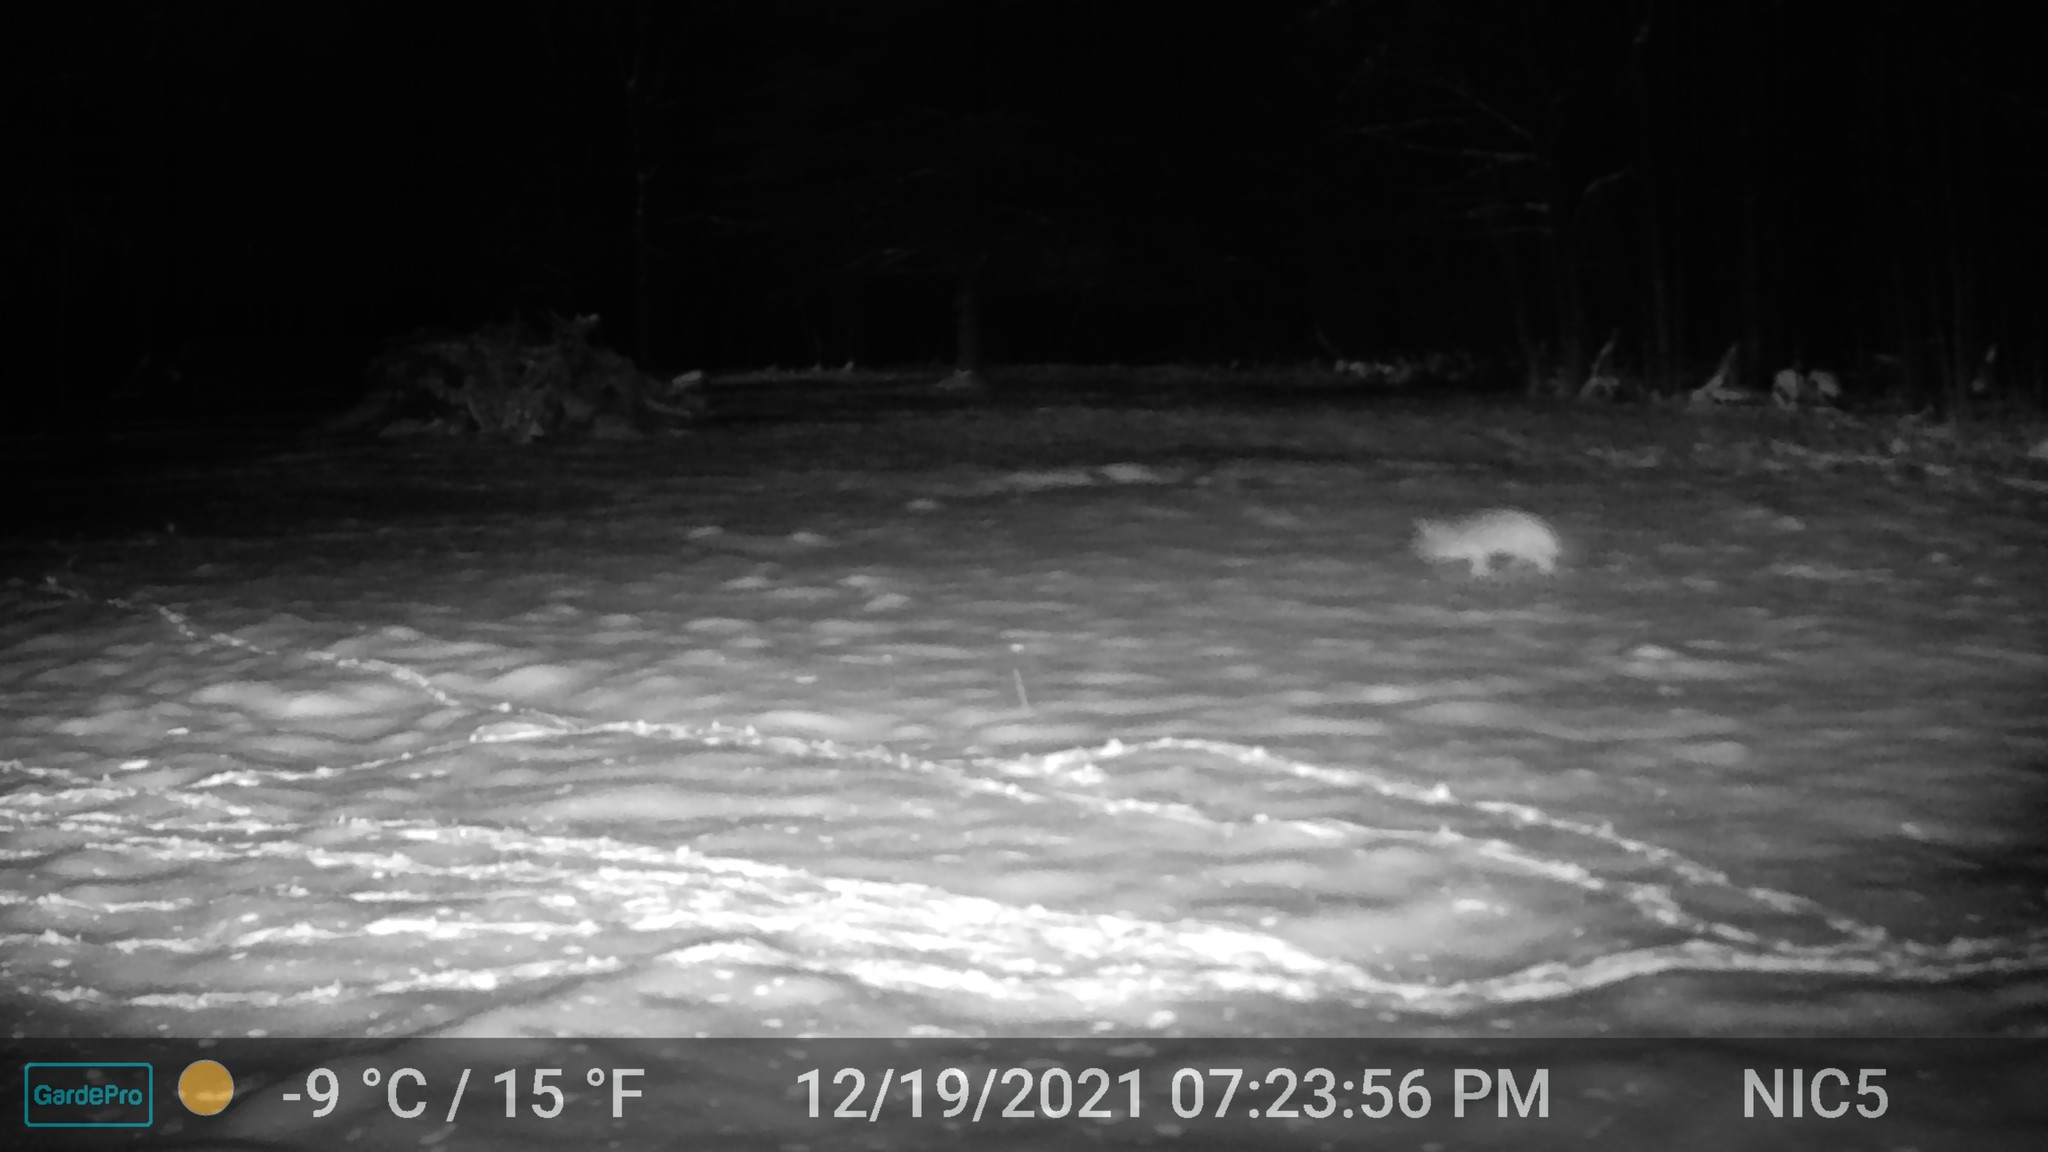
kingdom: Animalia
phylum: Chordata
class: Mammalia
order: Carnivora
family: Canidae
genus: Canis
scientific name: Canis latrans
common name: Coyote
